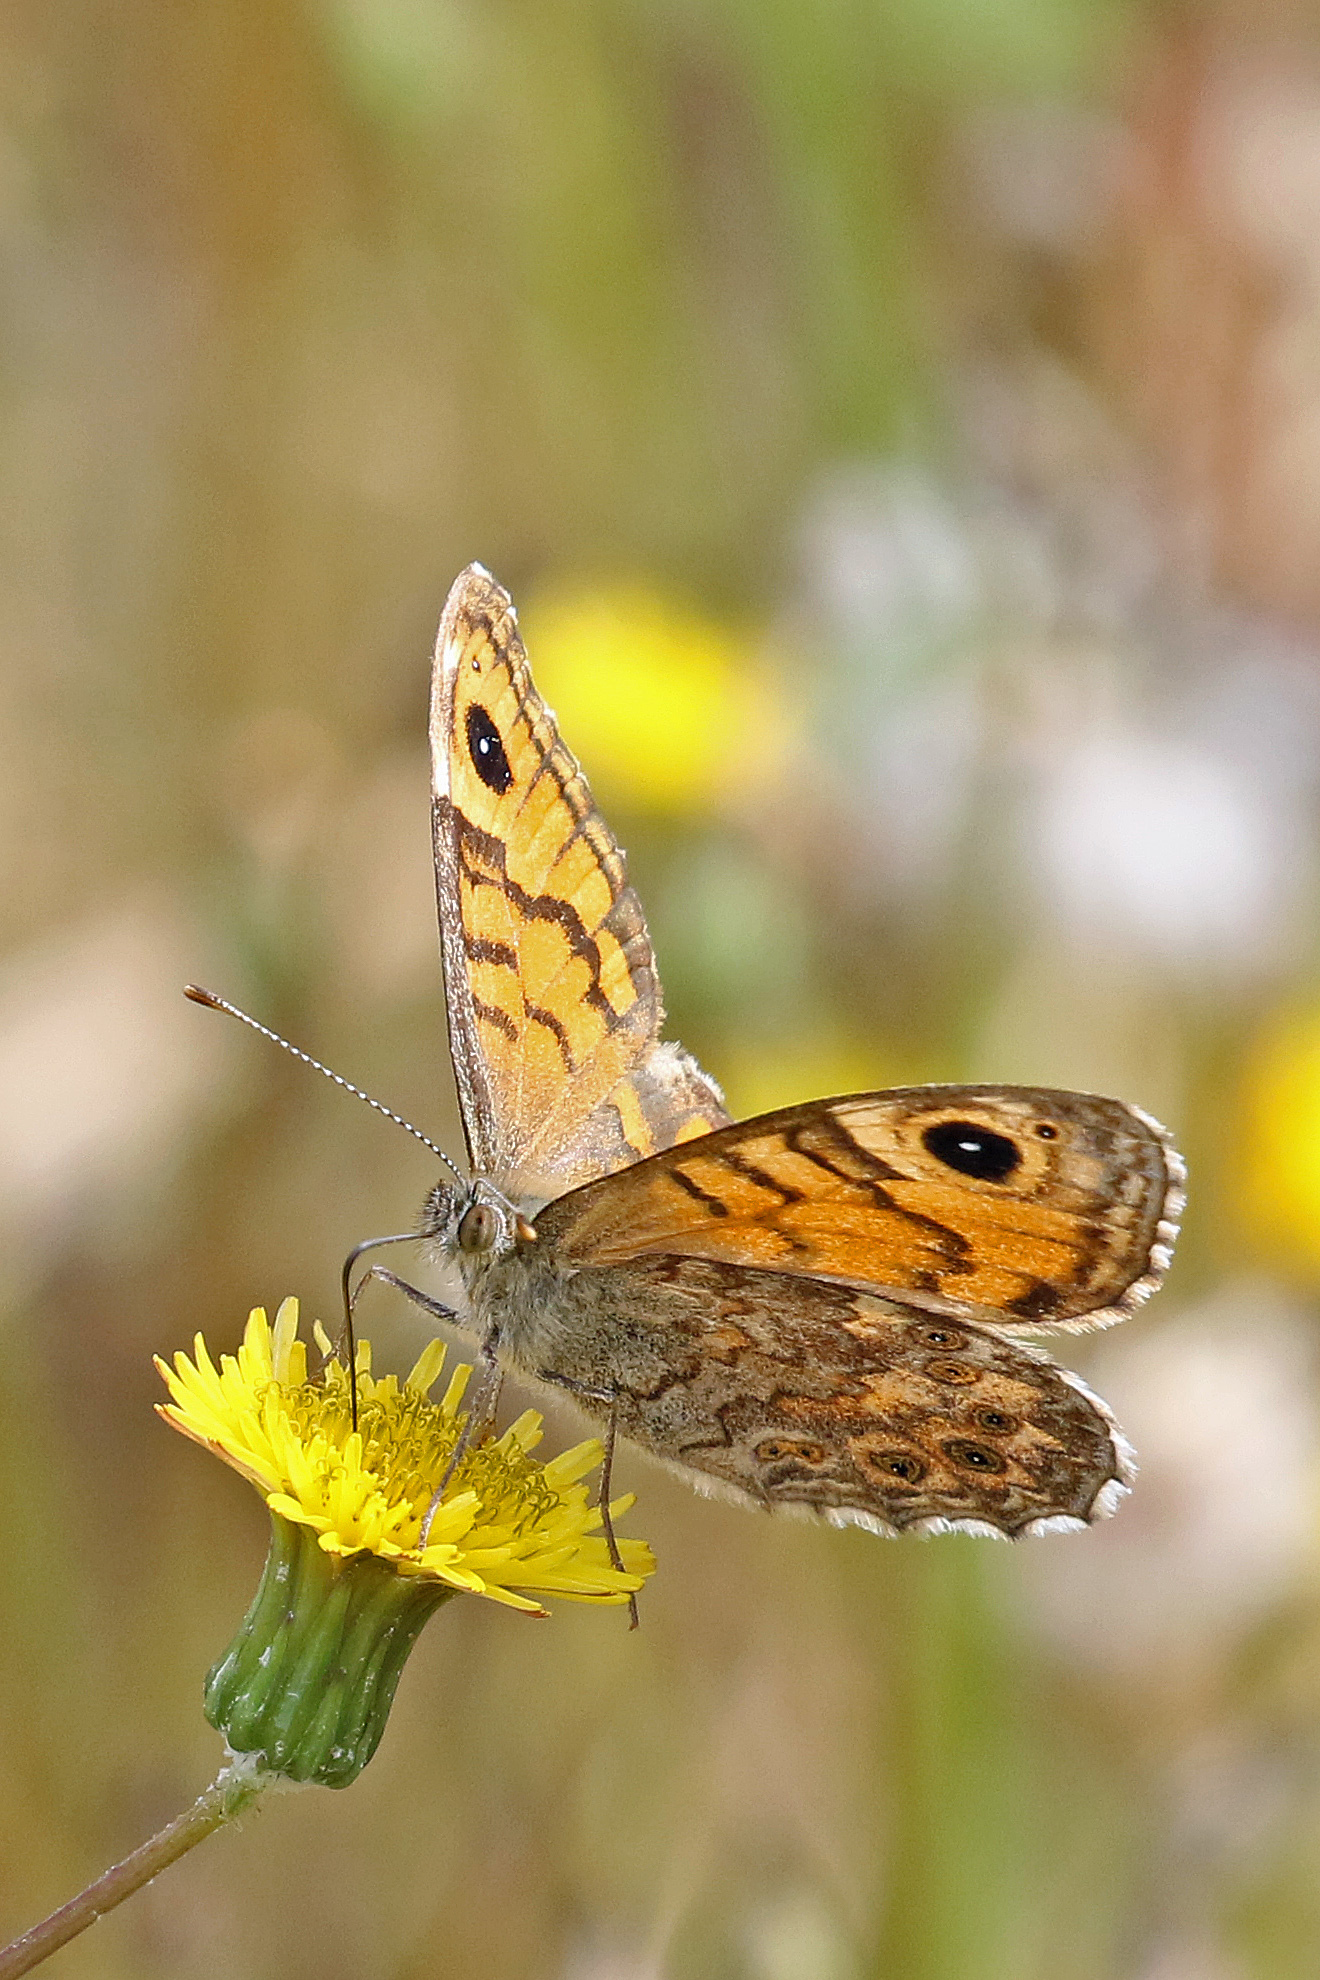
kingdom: Animalia
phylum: Arthropoda
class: Insecta
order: Lepidoptera
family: Nymphalidae
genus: Pararge
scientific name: Pararge Lasiommata megera
